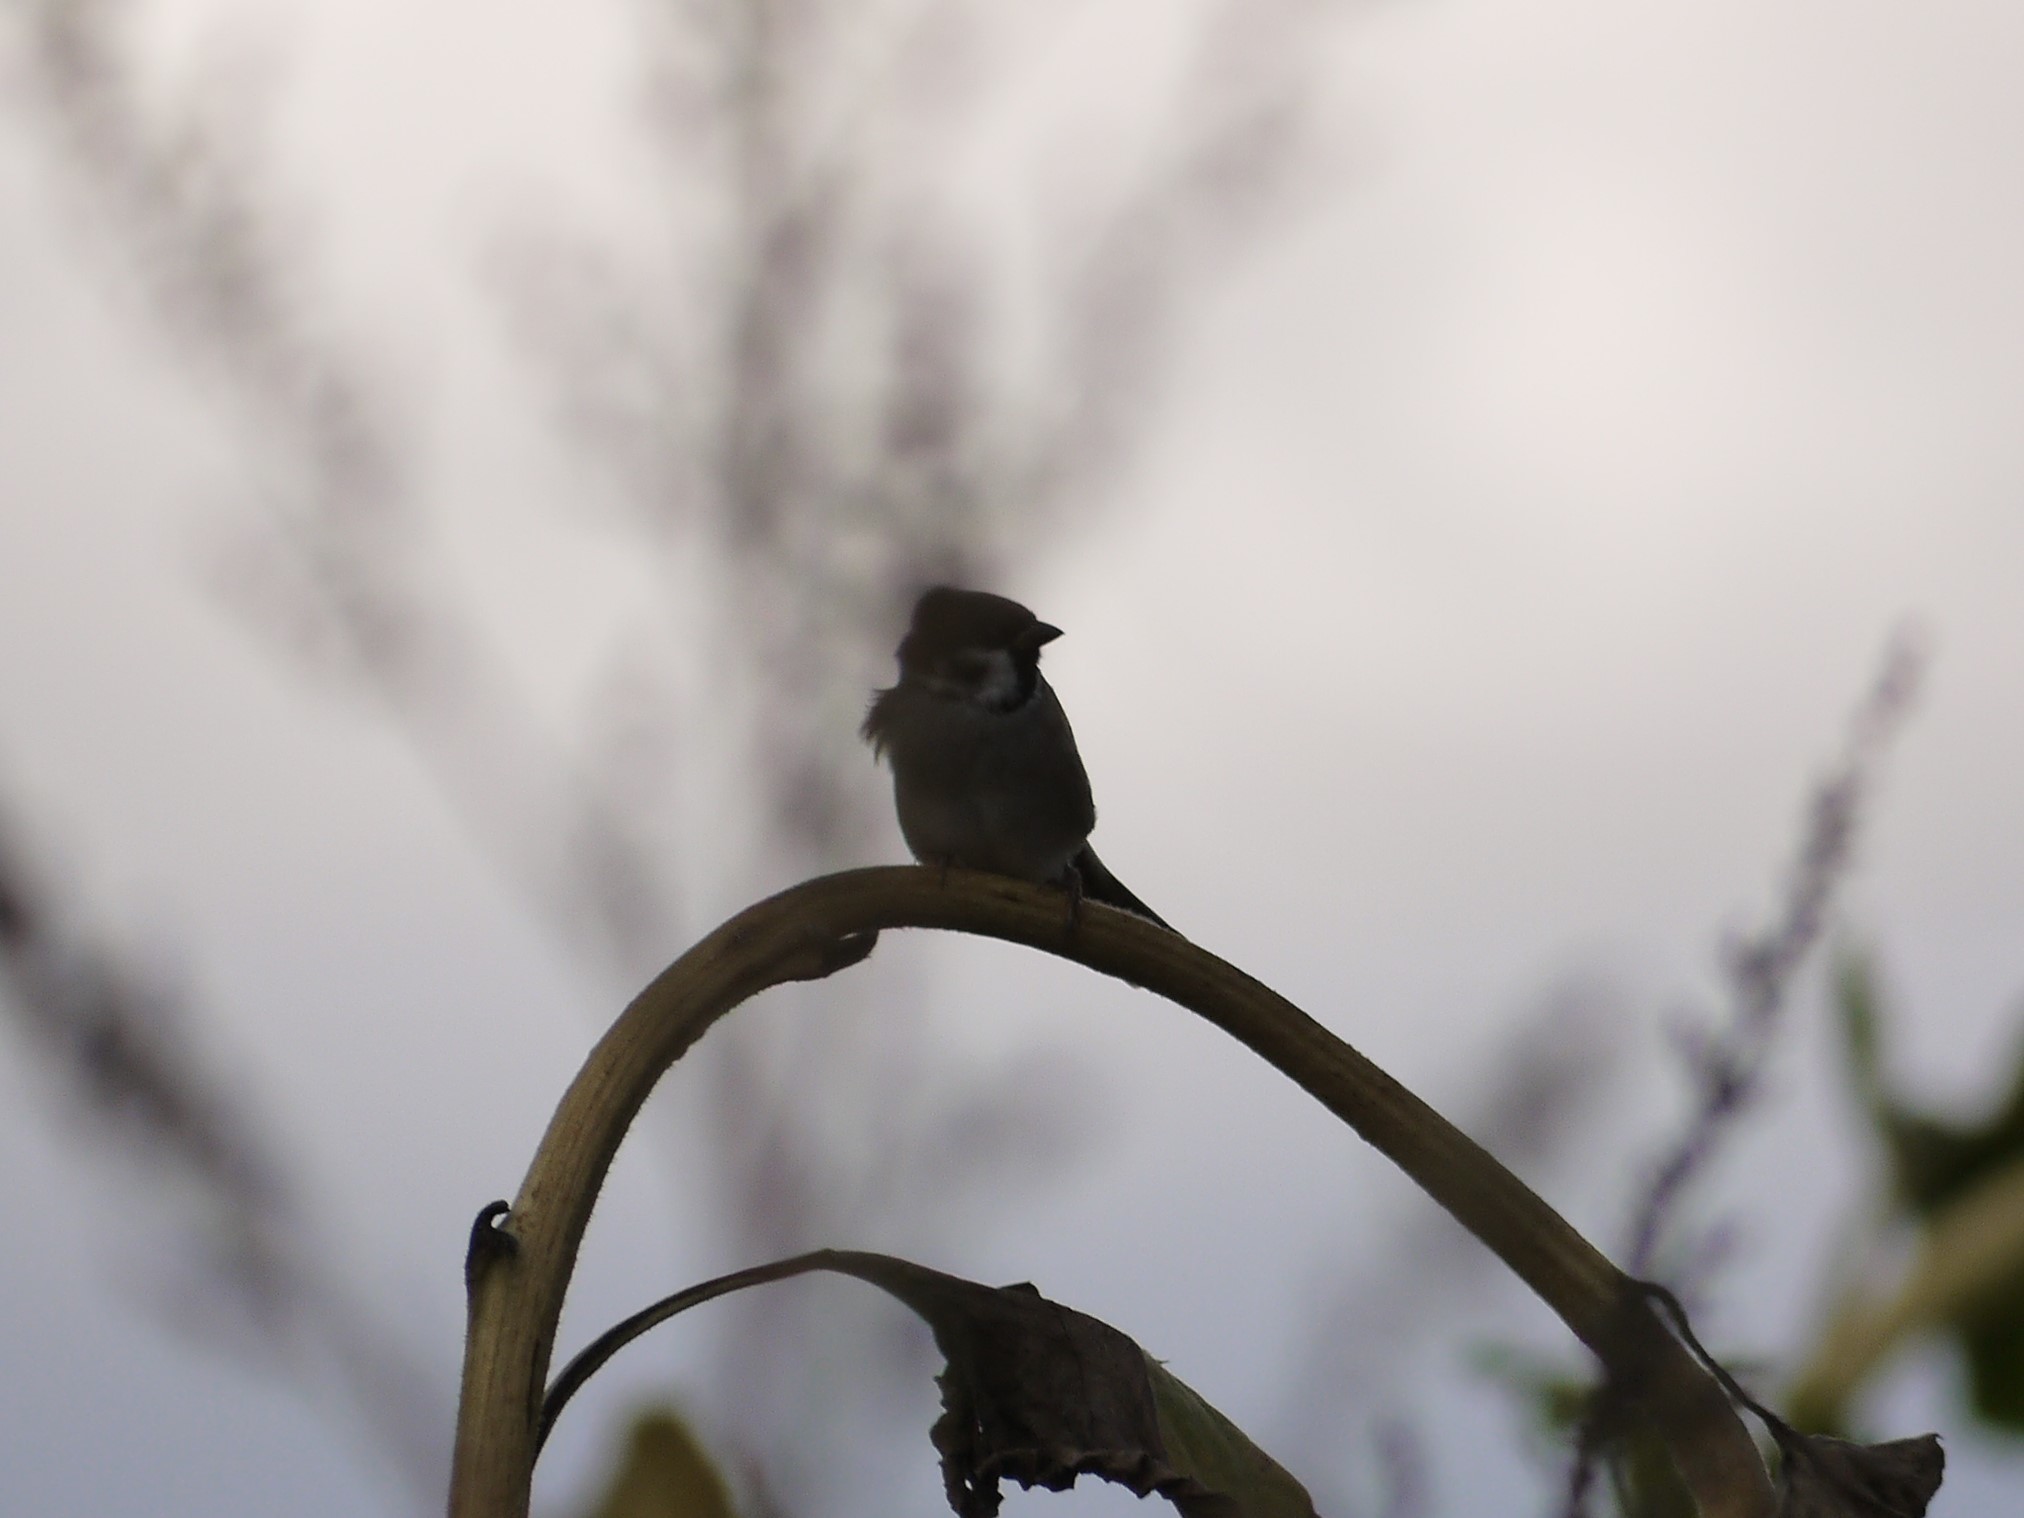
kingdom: Animalia
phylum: Chordata
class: Aves
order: Passeriformes
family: Passeridae
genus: Passer
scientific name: Passer montanus
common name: Eurasian tree sparrow
